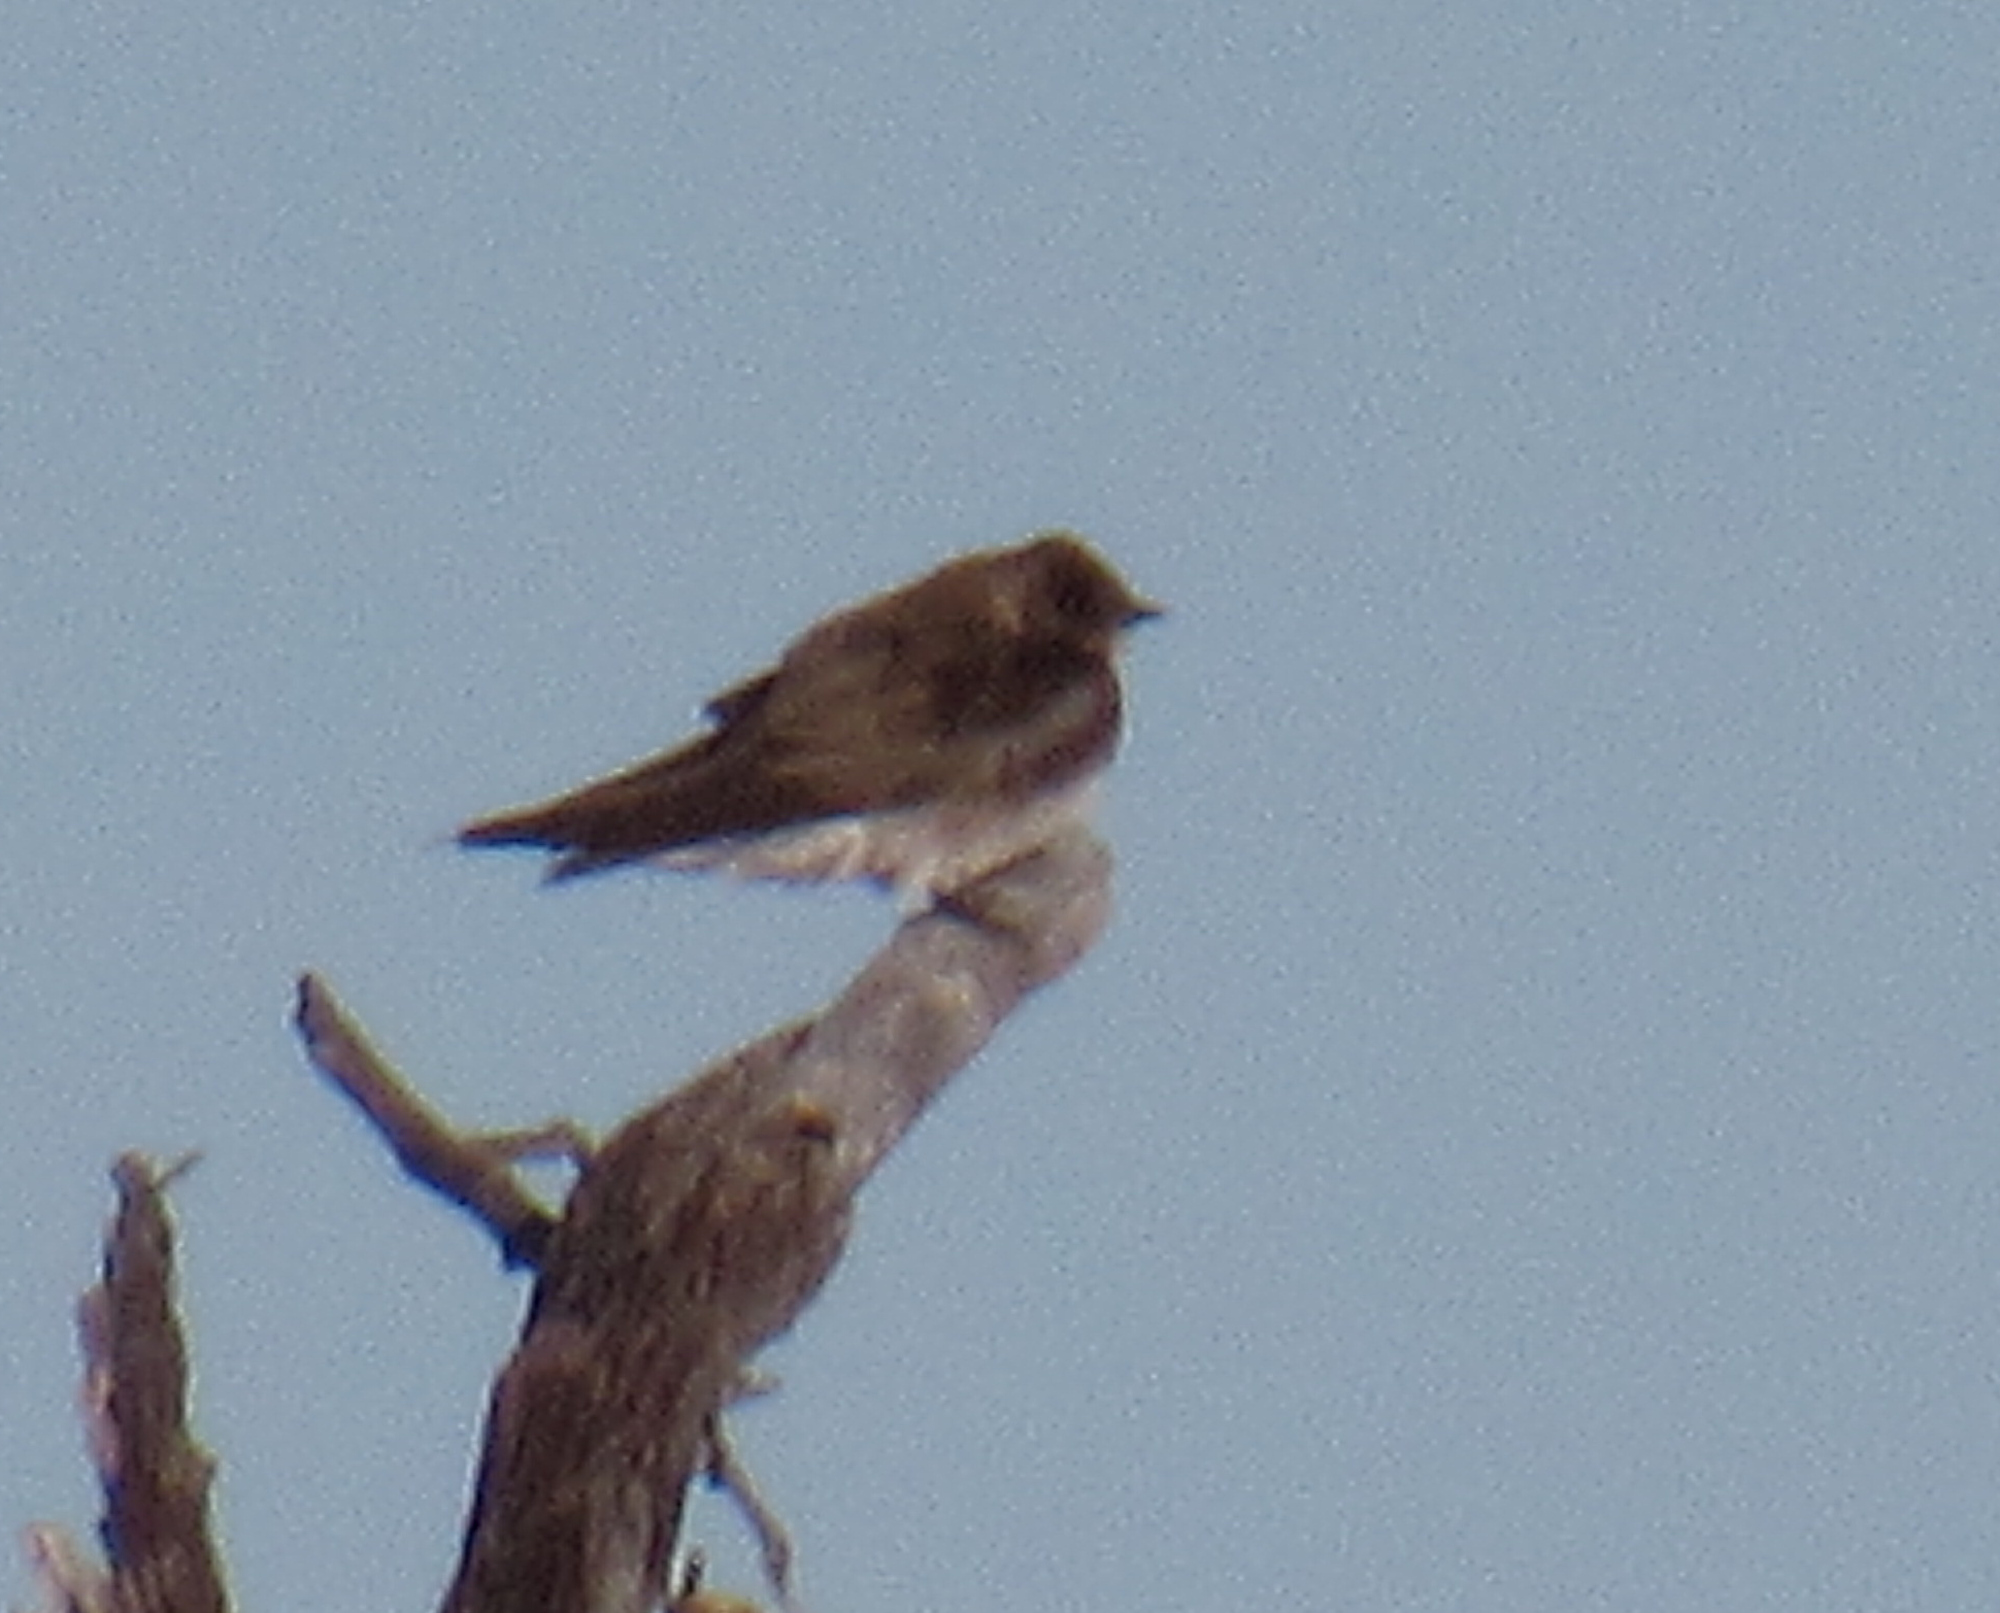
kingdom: Animalia
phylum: Chordata
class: Aves
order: Passeriformes
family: Hirundinidae
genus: Stelgidopteryx
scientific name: Stelgidopteryx serripennis
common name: Northern rough-winged swallow
